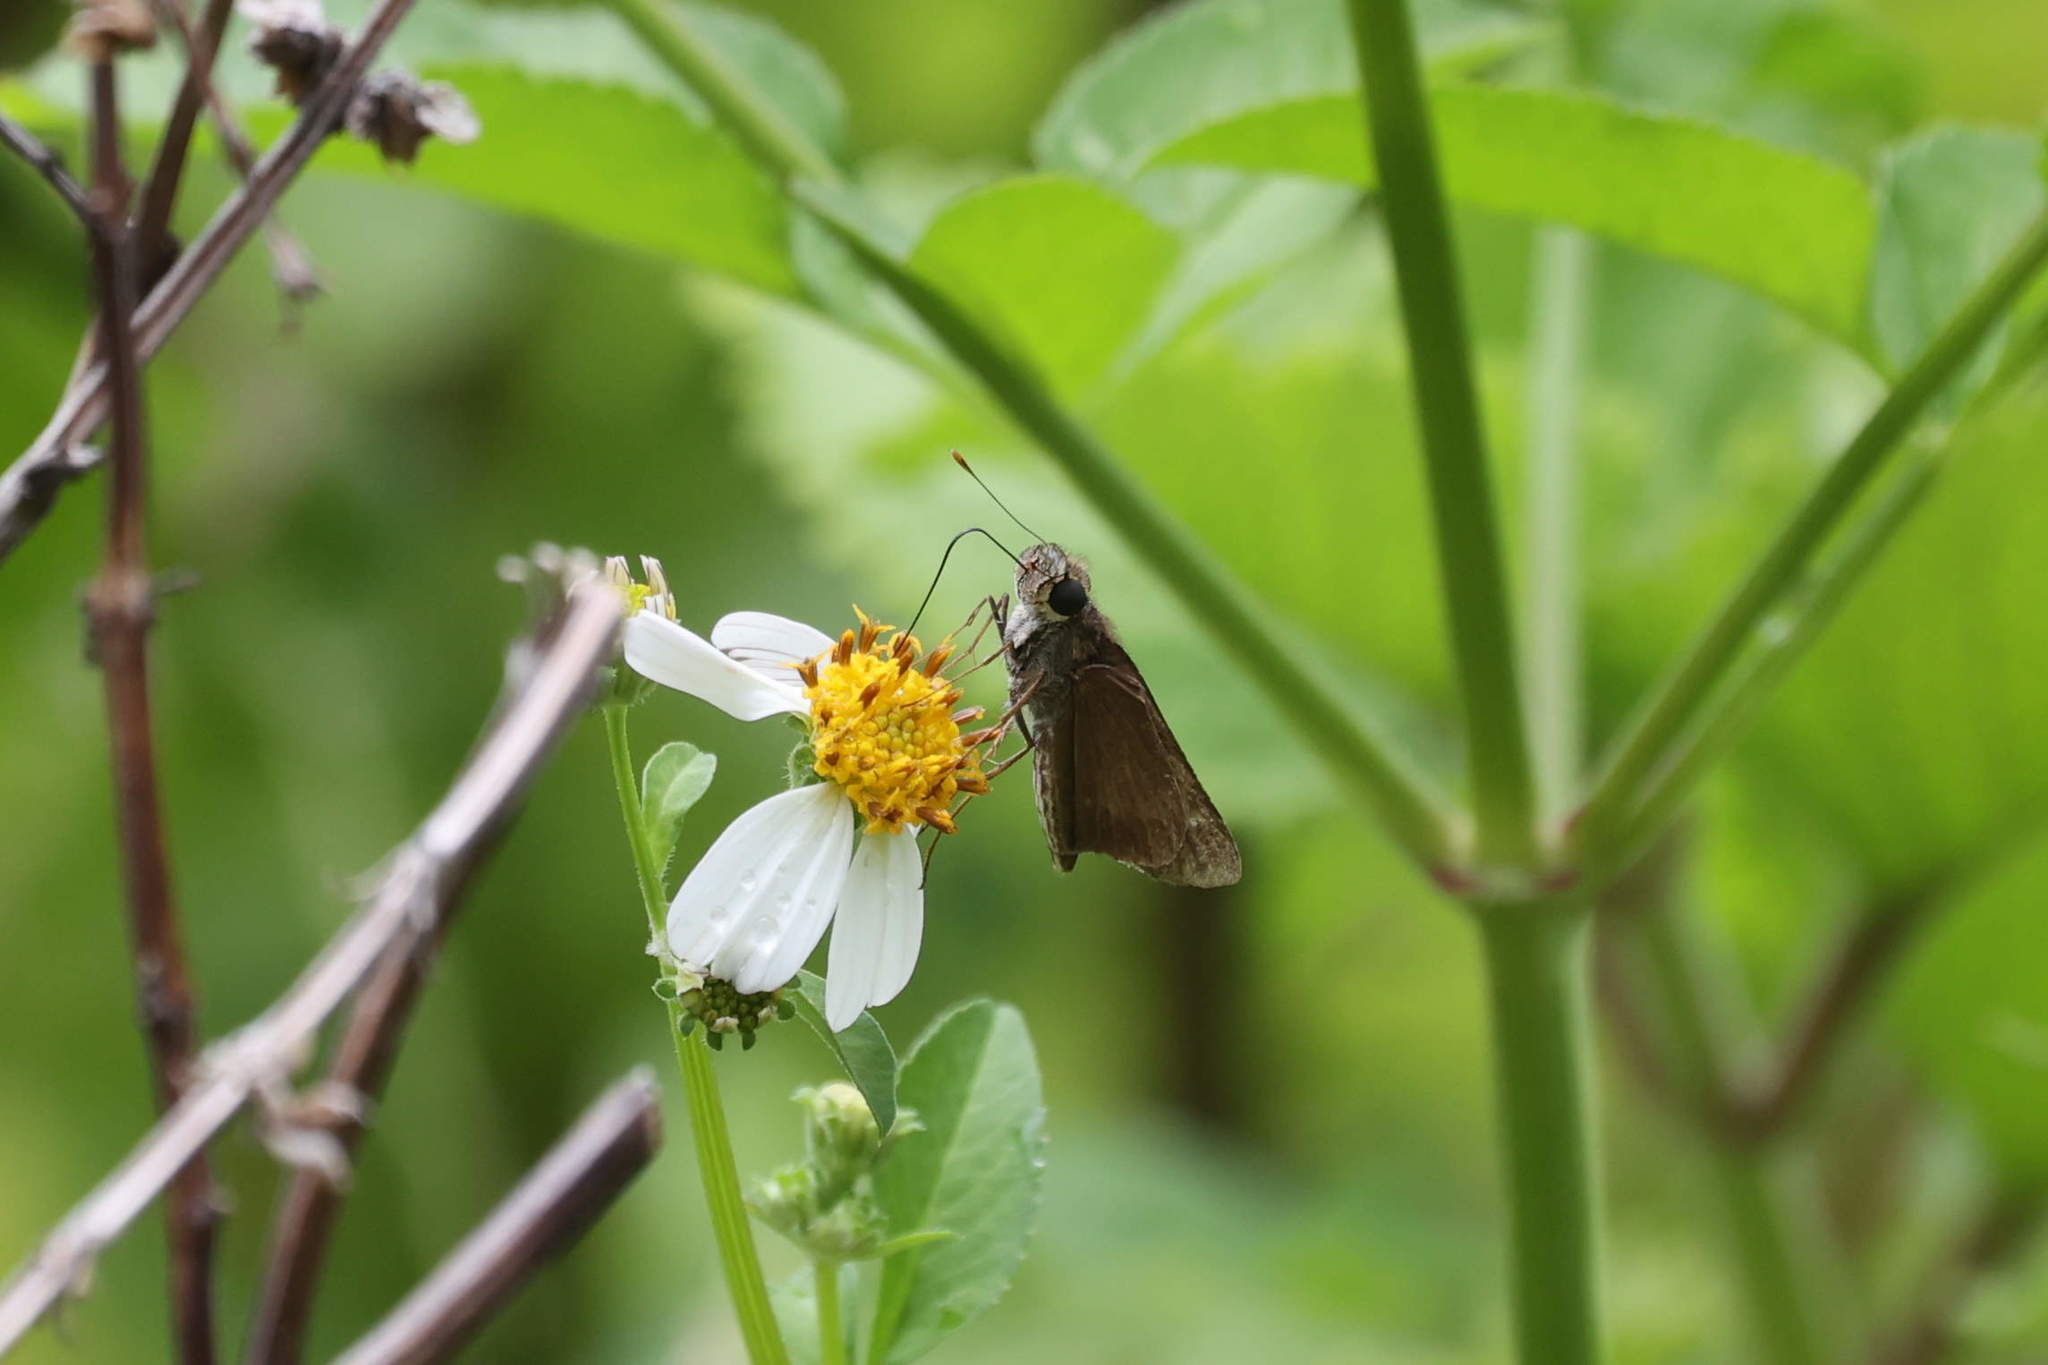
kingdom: Animalia
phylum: Arthropoda
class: Insecta
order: Lepidoptera
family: Hesperiidae
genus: Panoquina
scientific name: Panoquina panoquinoides
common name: Beach skipper
